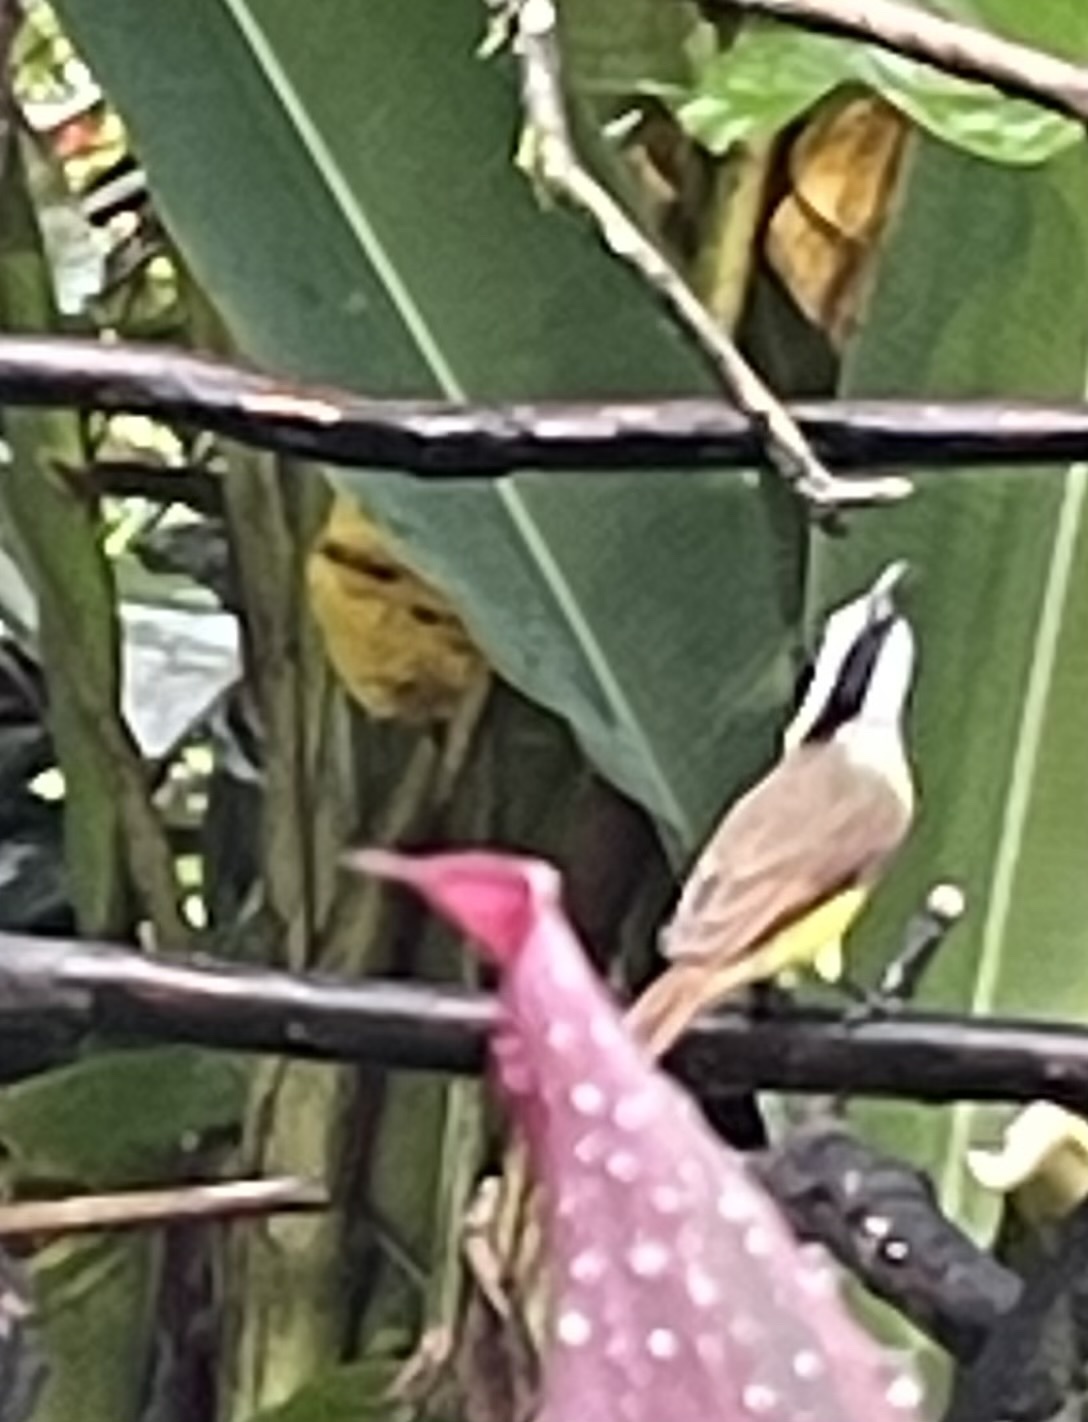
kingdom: Animalia
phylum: Chordata
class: Aves
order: Passeriformes
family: Tyrannidae
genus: Pitangus
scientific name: Pitangus sulphuratus
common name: Great kiskadee
